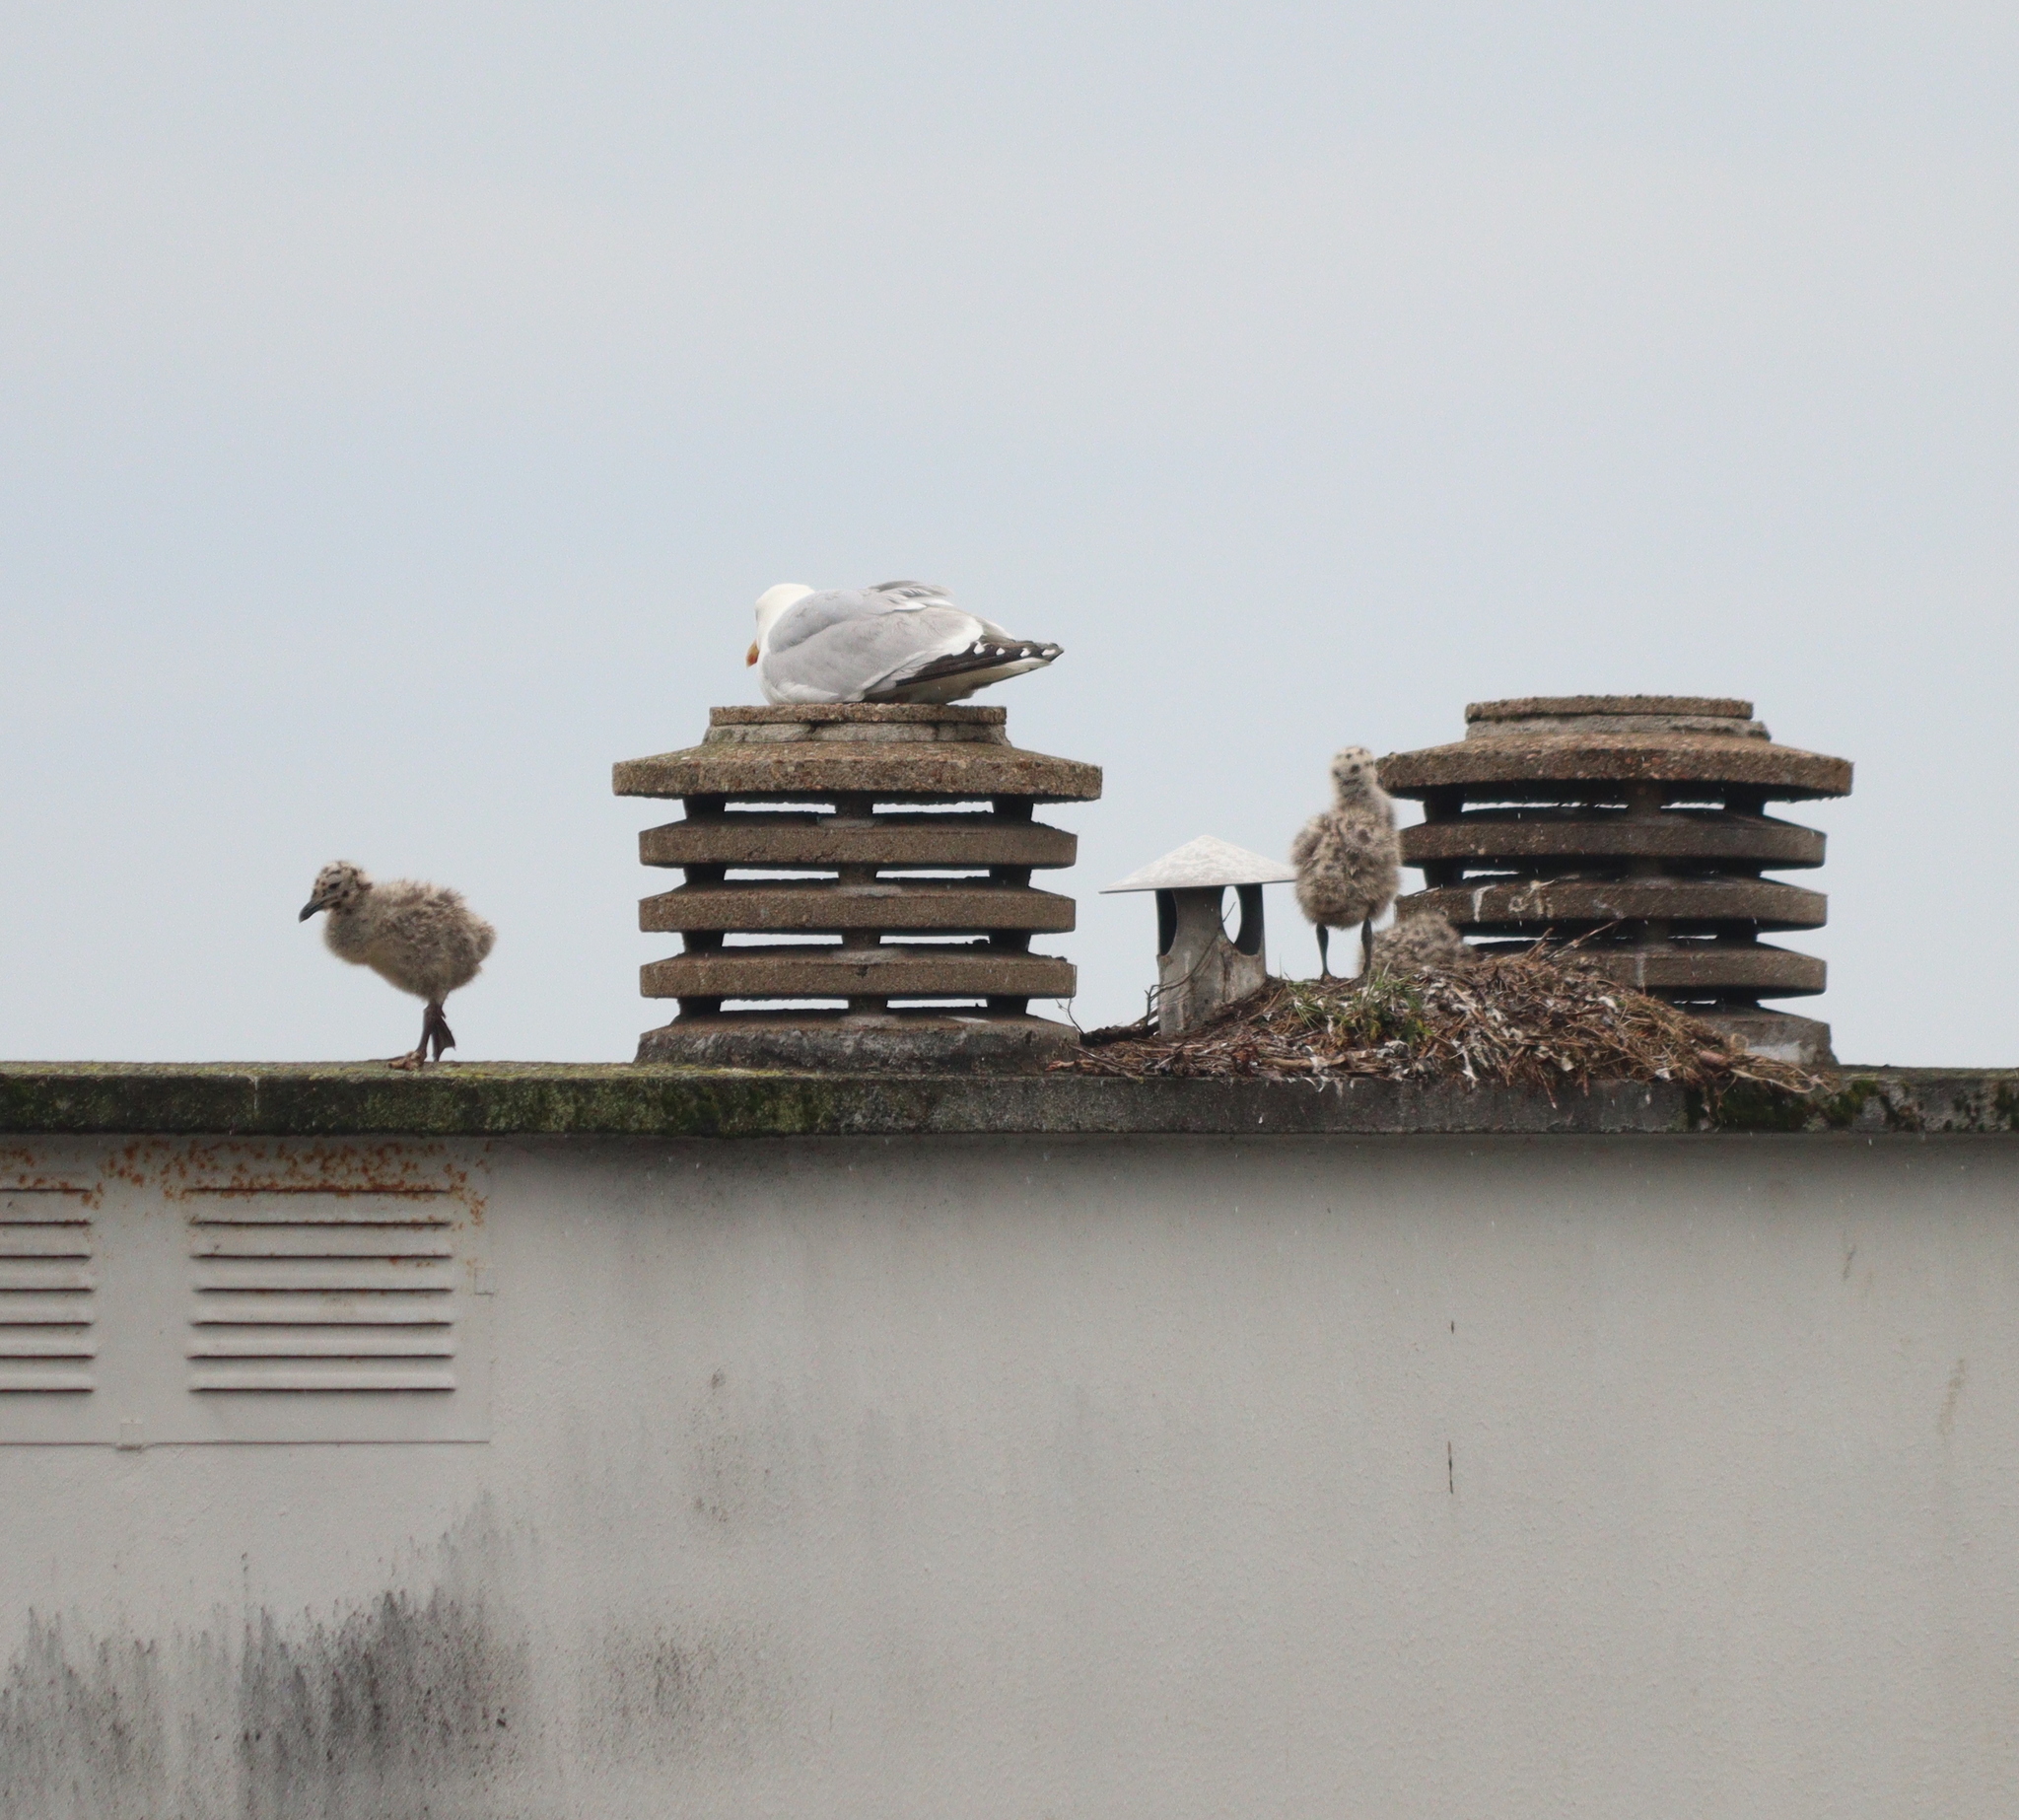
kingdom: Animalia
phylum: Chordata
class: Aves
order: Charadriiformes
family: Laridae
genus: Larus
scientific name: Larus argentatus
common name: Herring gull
